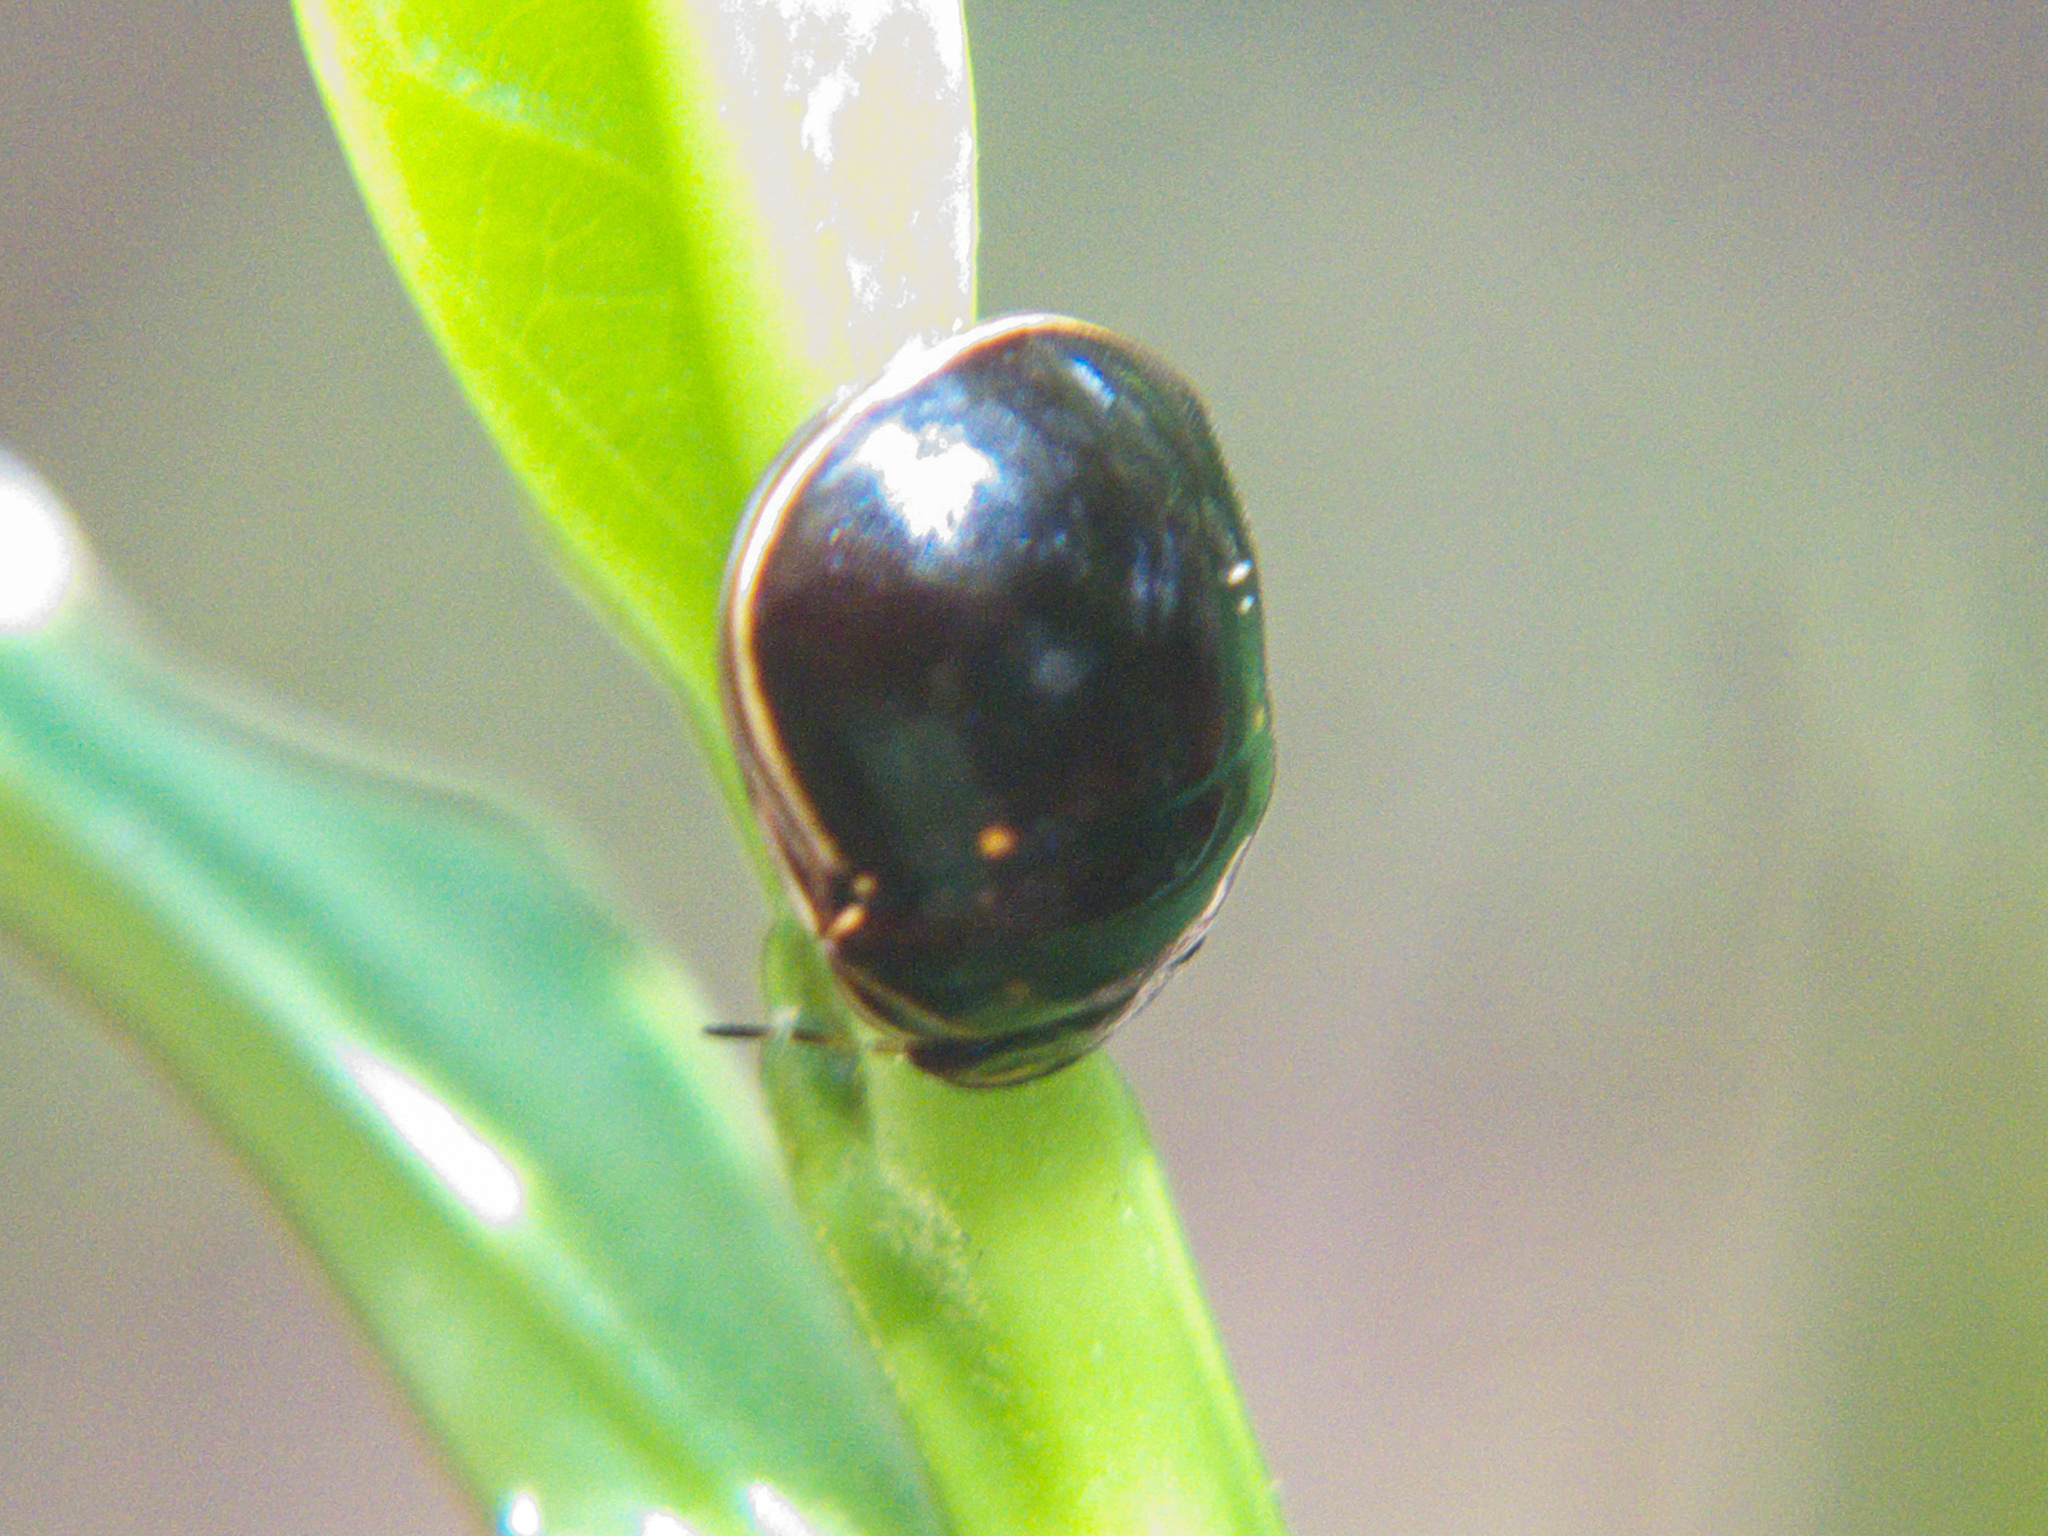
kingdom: Animalia
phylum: Arthropoda
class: Insecta
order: Hemiptera
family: Plataspidae
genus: Brachyplatys
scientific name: Brachyplatys
